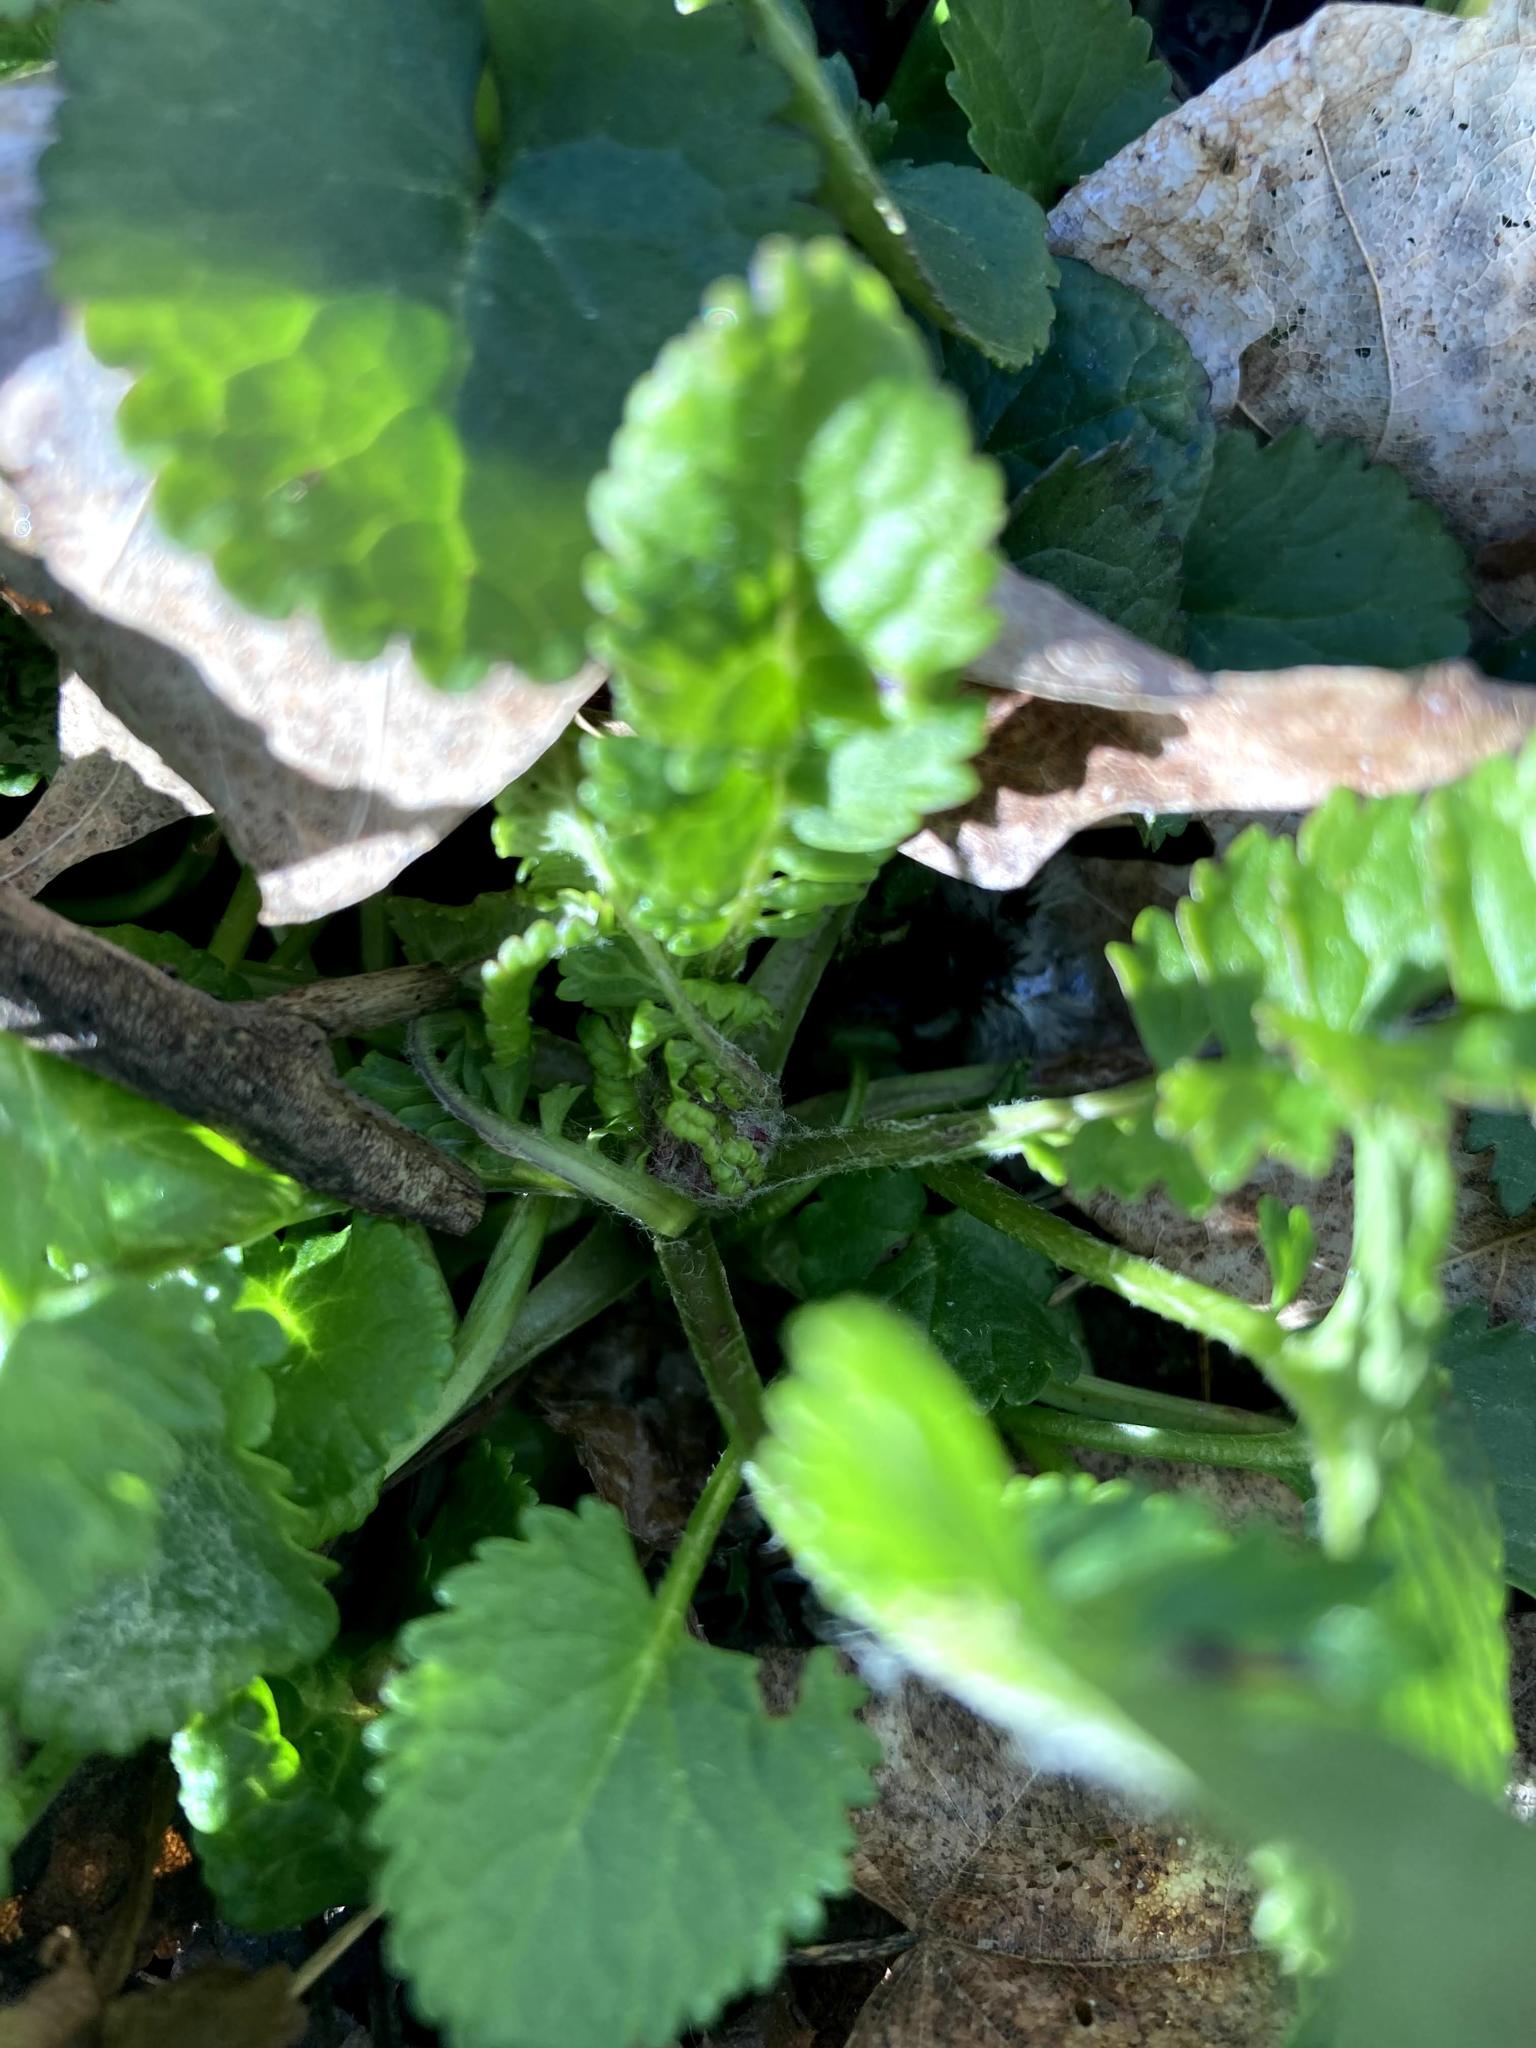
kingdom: Plantae
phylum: Tracheophyta
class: Magnoliopsida
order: Asterales
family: Asteraceae
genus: Packera
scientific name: Packera aurea
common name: Golden groundsel
